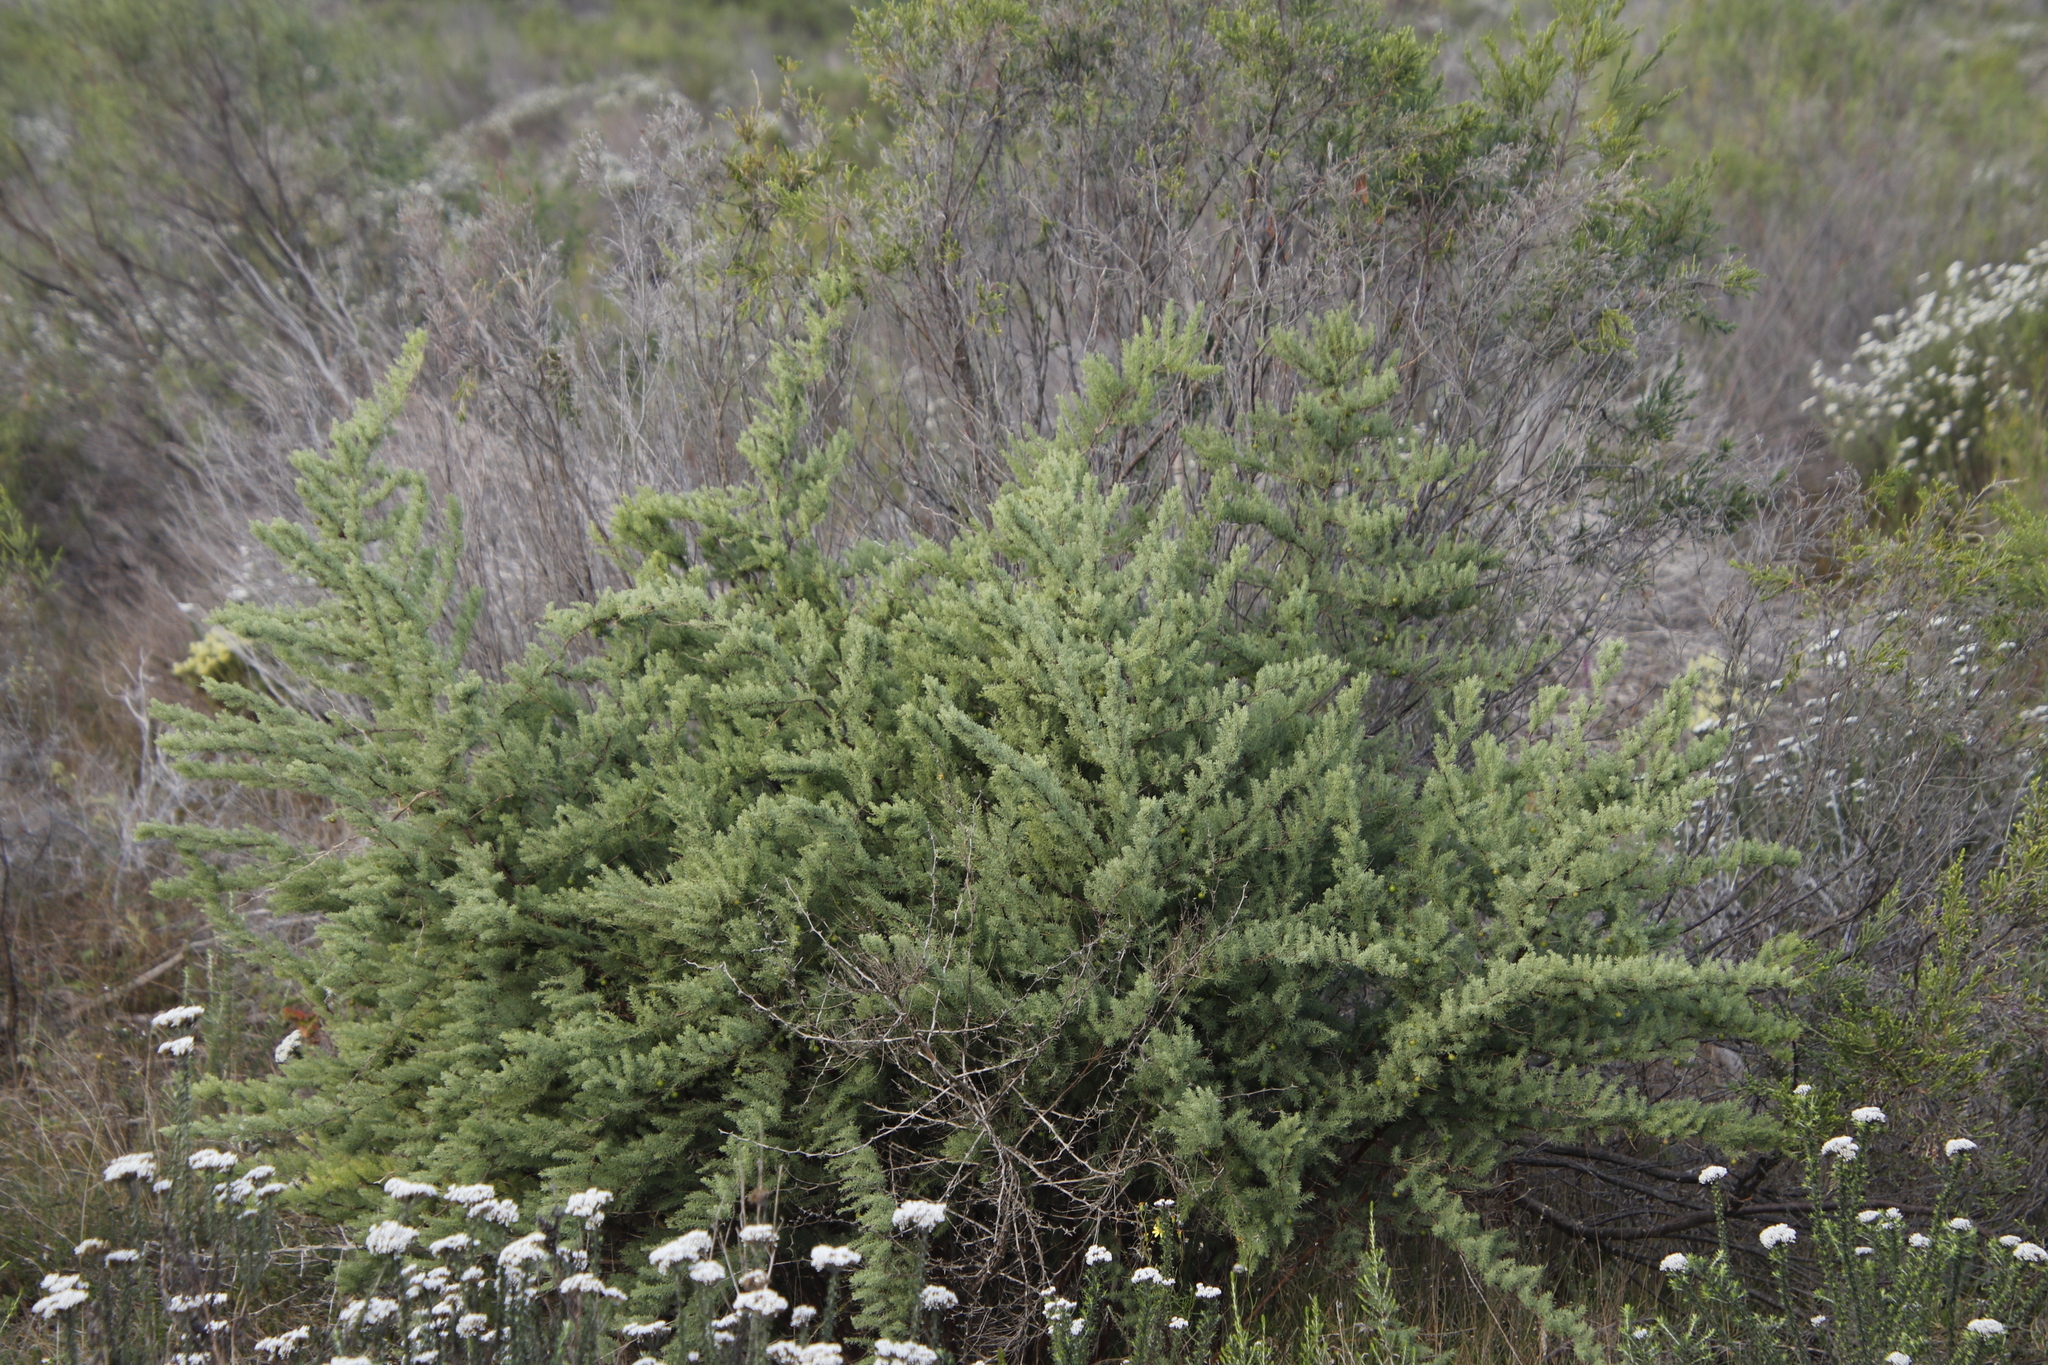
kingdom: Plantae
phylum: Tracheophyta
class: Liliopsida
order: Asparagales
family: Asparagaceae
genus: Asparagus
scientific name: Asparagus rubicundus
